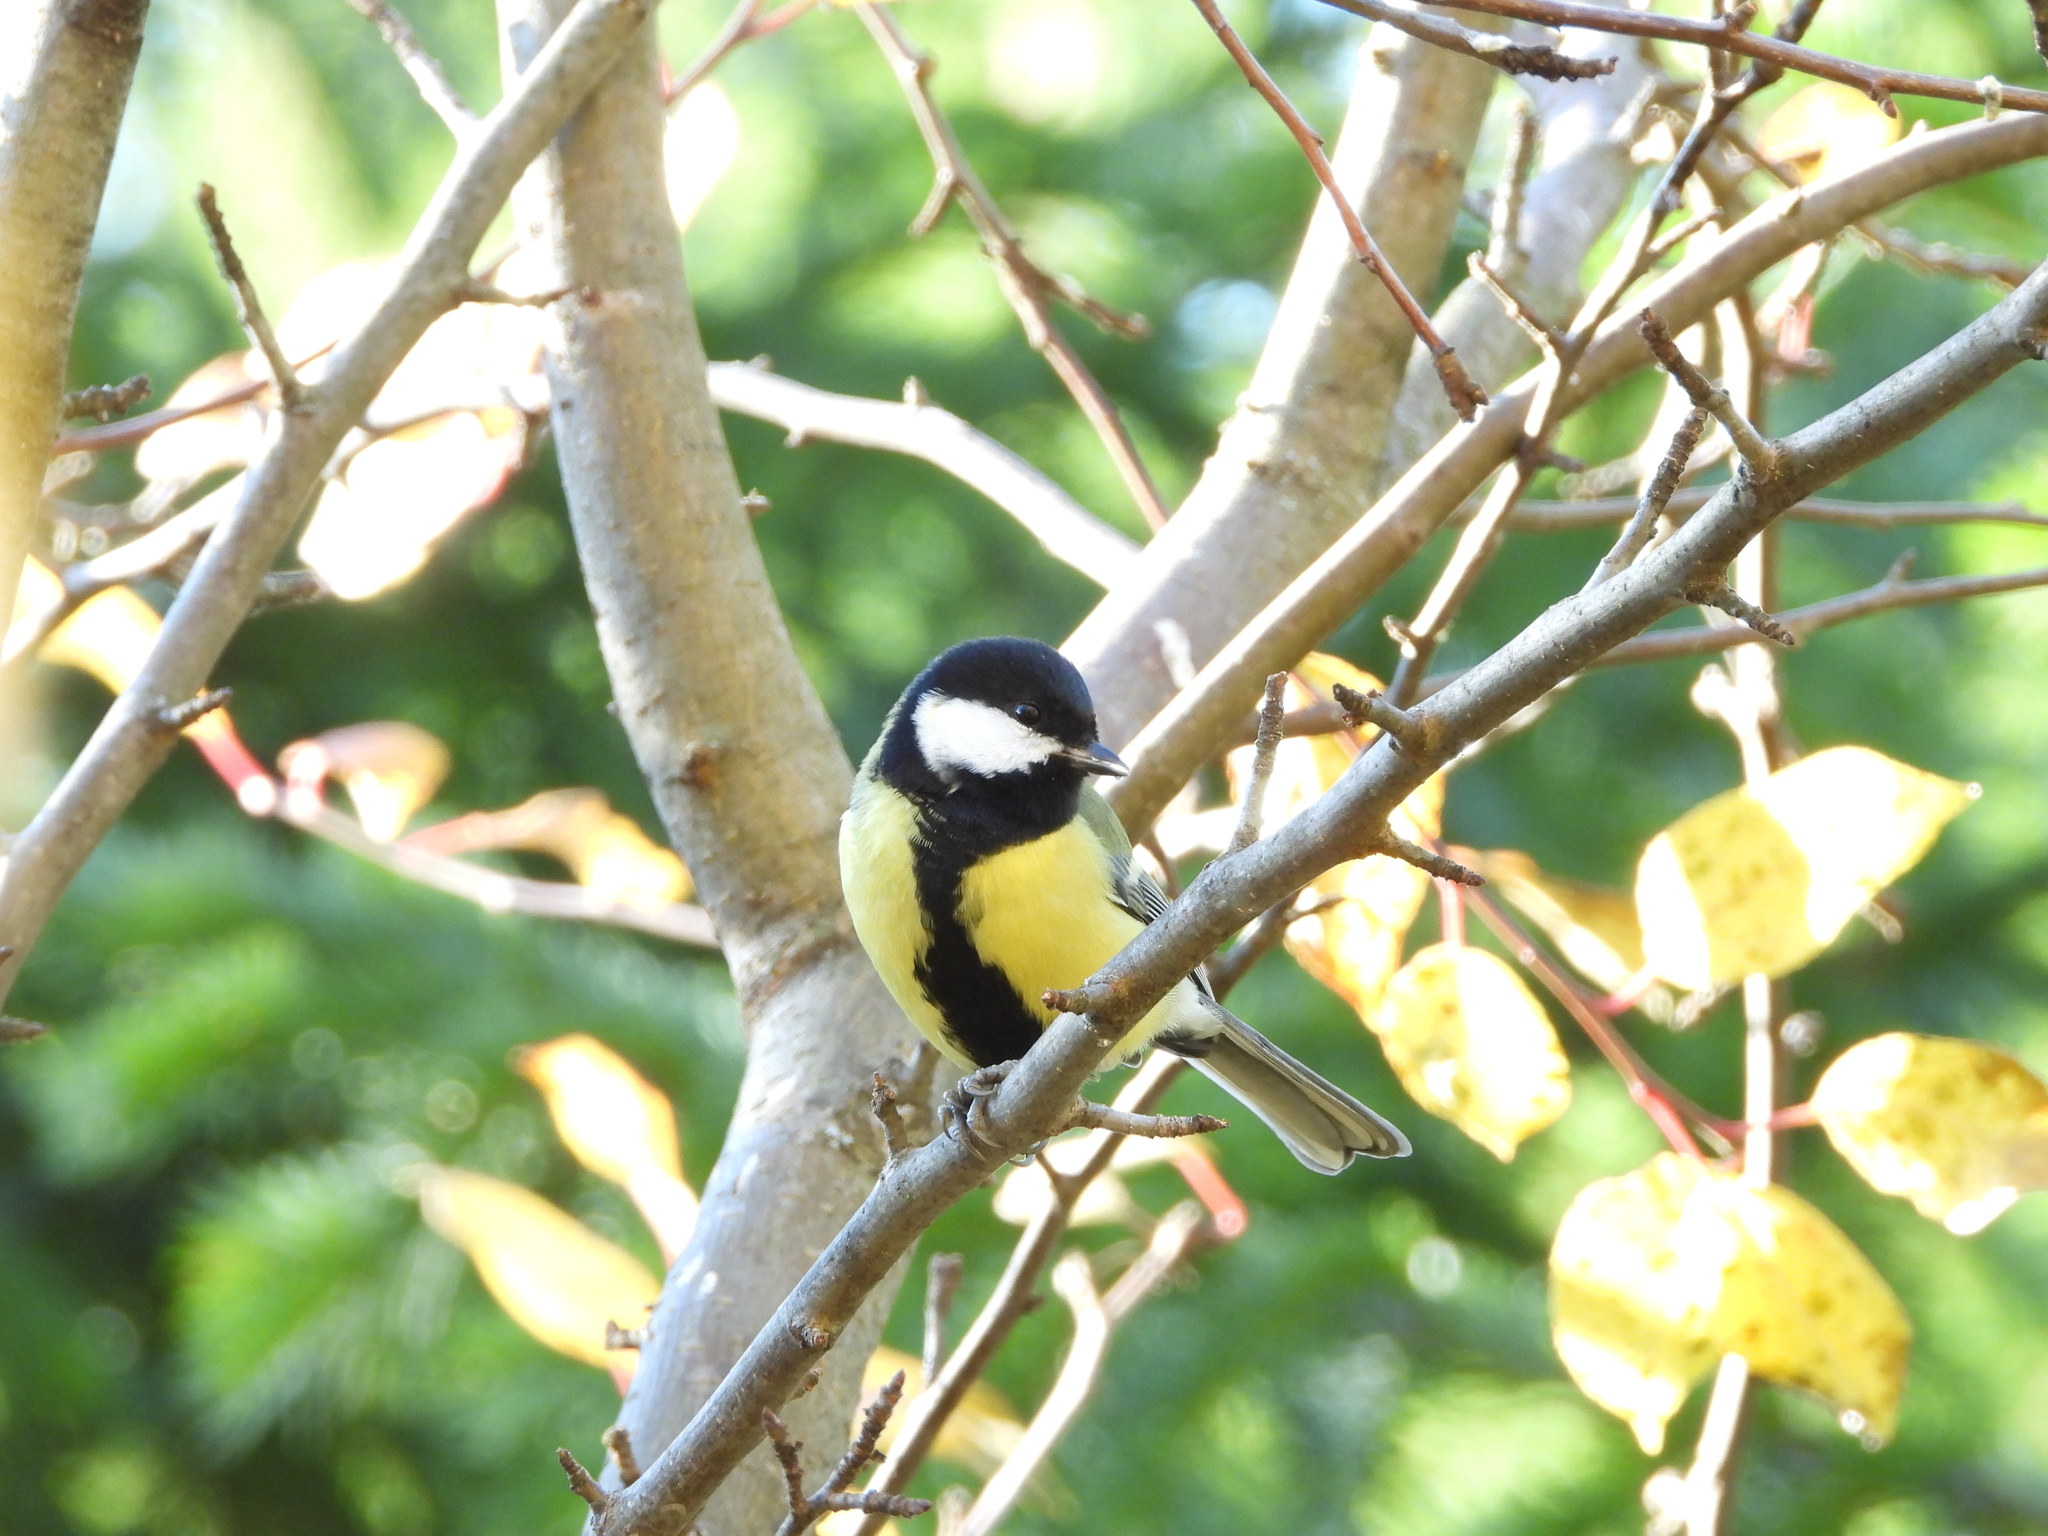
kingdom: Animalia
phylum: Chordata
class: Aves
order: Passeriformes
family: Paridae
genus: Parus
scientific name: Parus major
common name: Great tit
